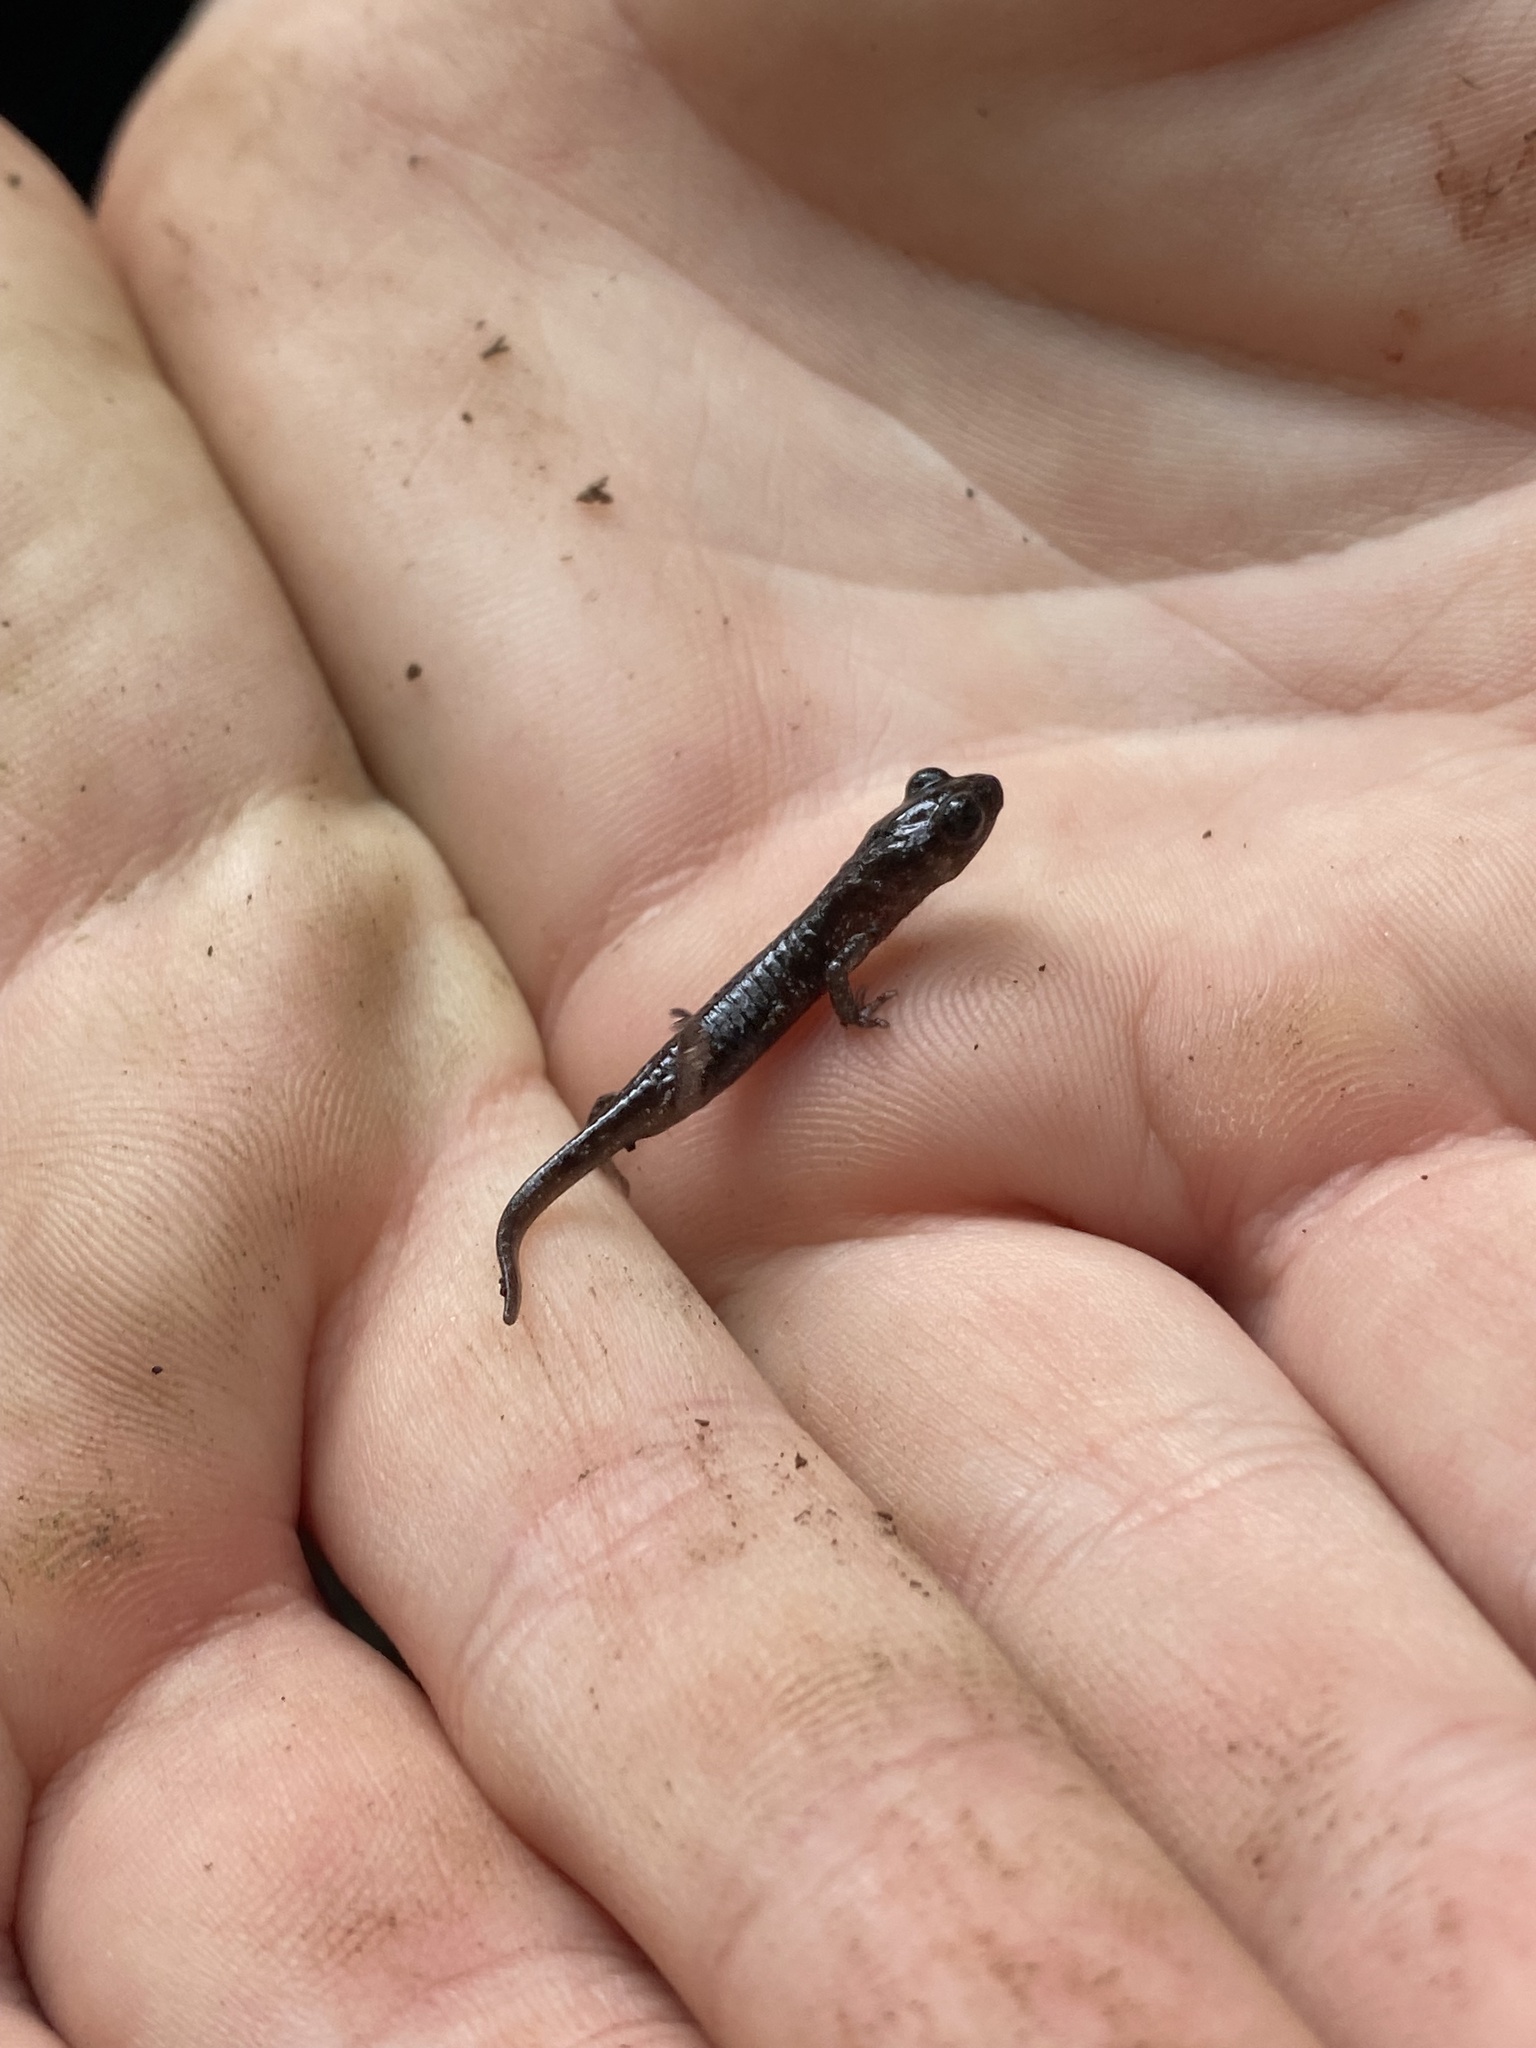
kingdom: Animalia
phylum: Chordata
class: Amphibia
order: Caudata
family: Plethodontidae
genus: Aneides
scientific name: Aneides lugubris
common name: Arboreal salamander
